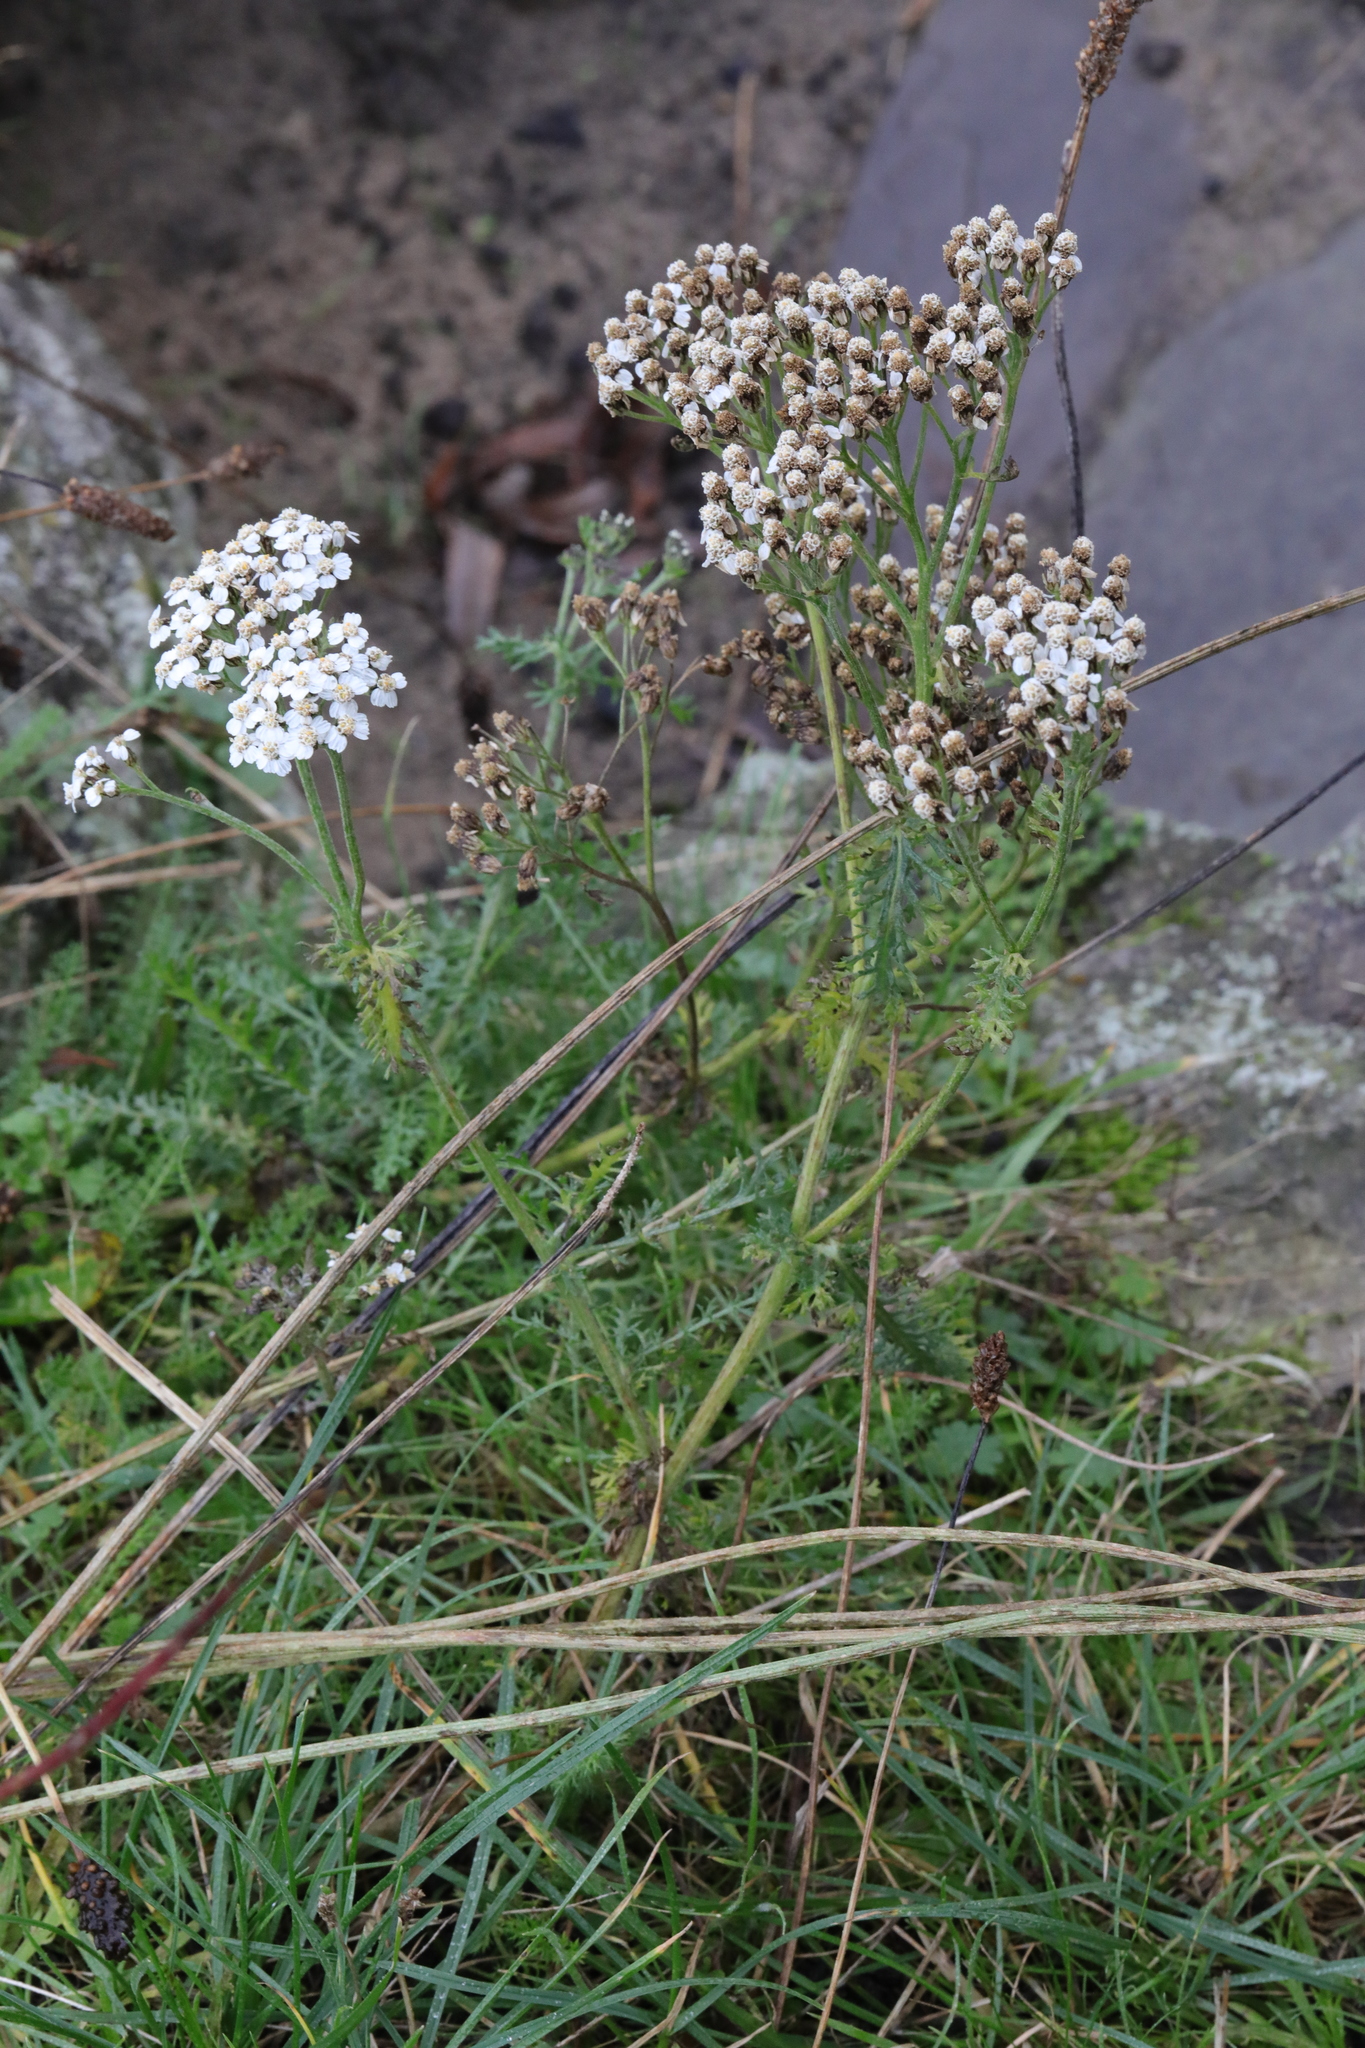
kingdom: Plantae
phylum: Tracheophyta
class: Magnoliopsida
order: Asterales
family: Asteraceae
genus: Achillea
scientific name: Achillea millefolium
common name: Yarrow
